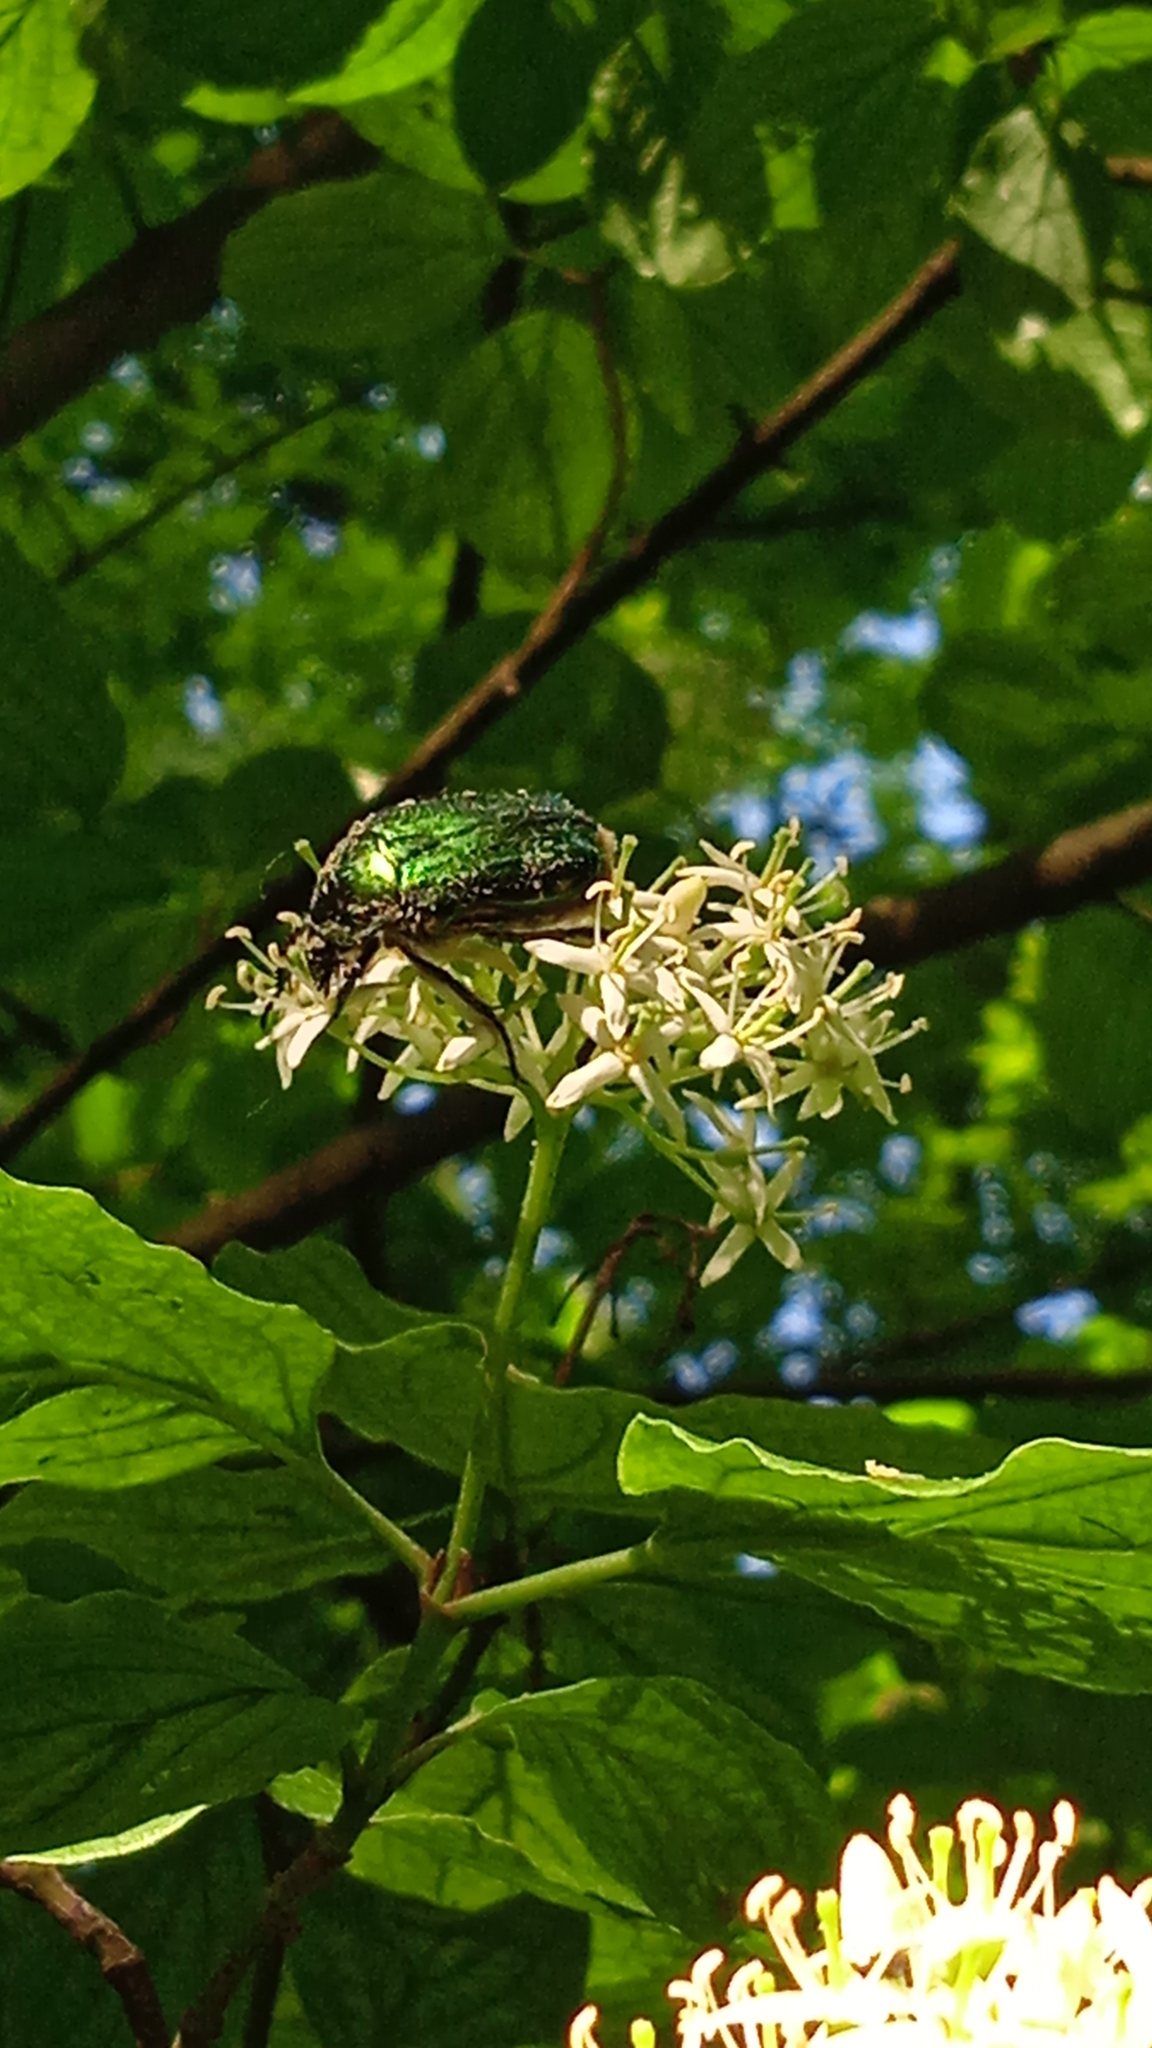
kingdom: Animalia
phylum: Arthropoda
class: Insecta
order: Coleoptera
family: Scarabaeidae
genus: Cetonia
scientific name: Cetonia aurata
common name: Rose chafer
